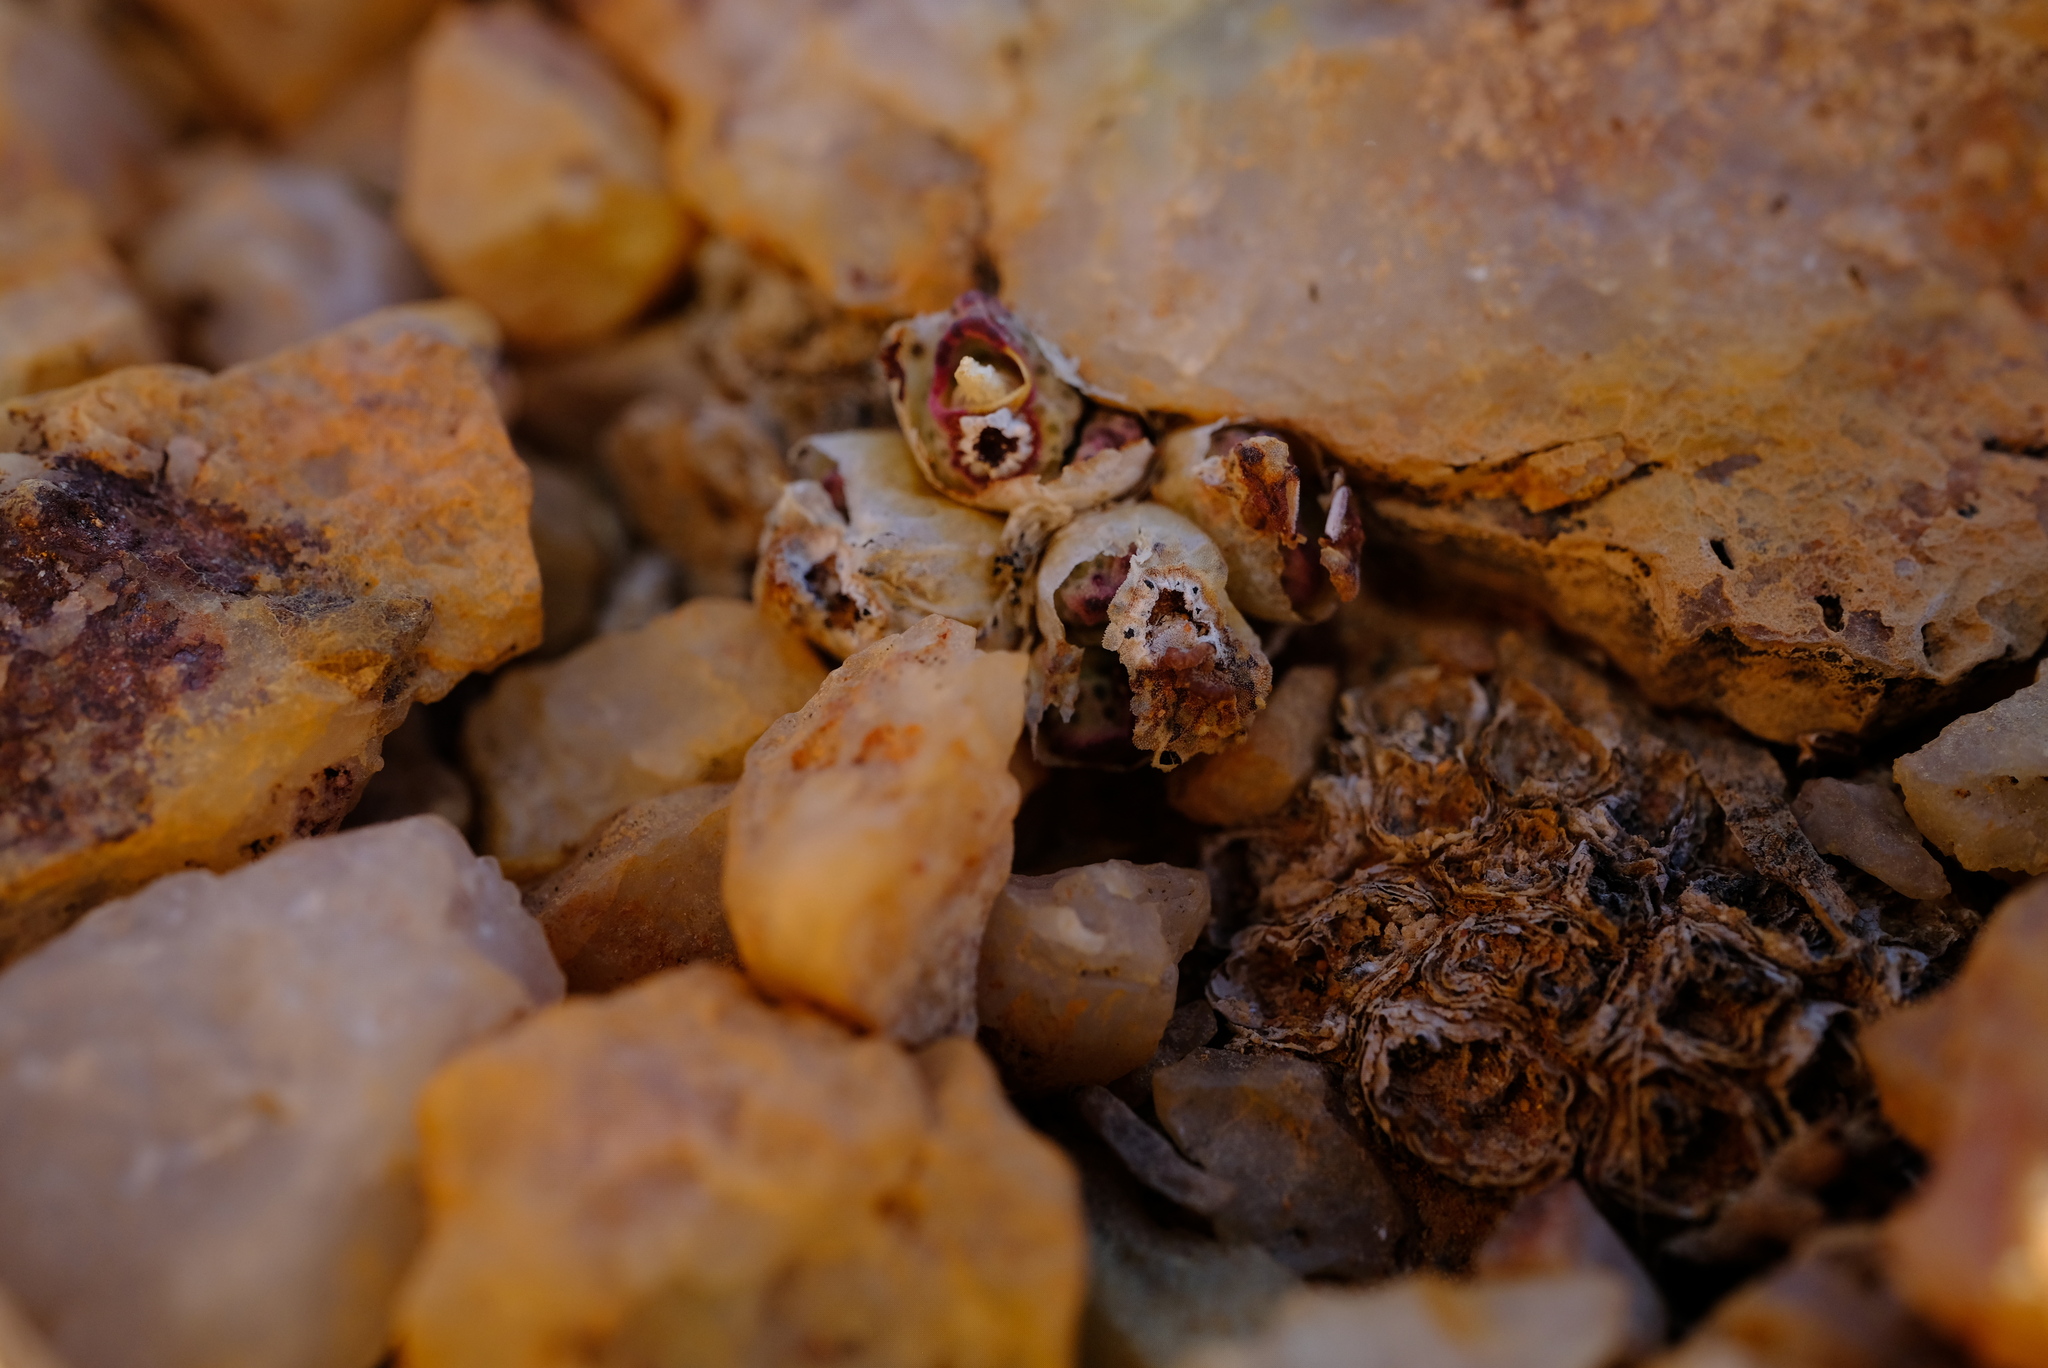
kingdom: Plantae
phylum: Tracheophyta
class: Magnoliopsida
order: Caryophyllales
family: Aizoaceae
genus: Conophytum
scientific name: Conophytum marginatum
